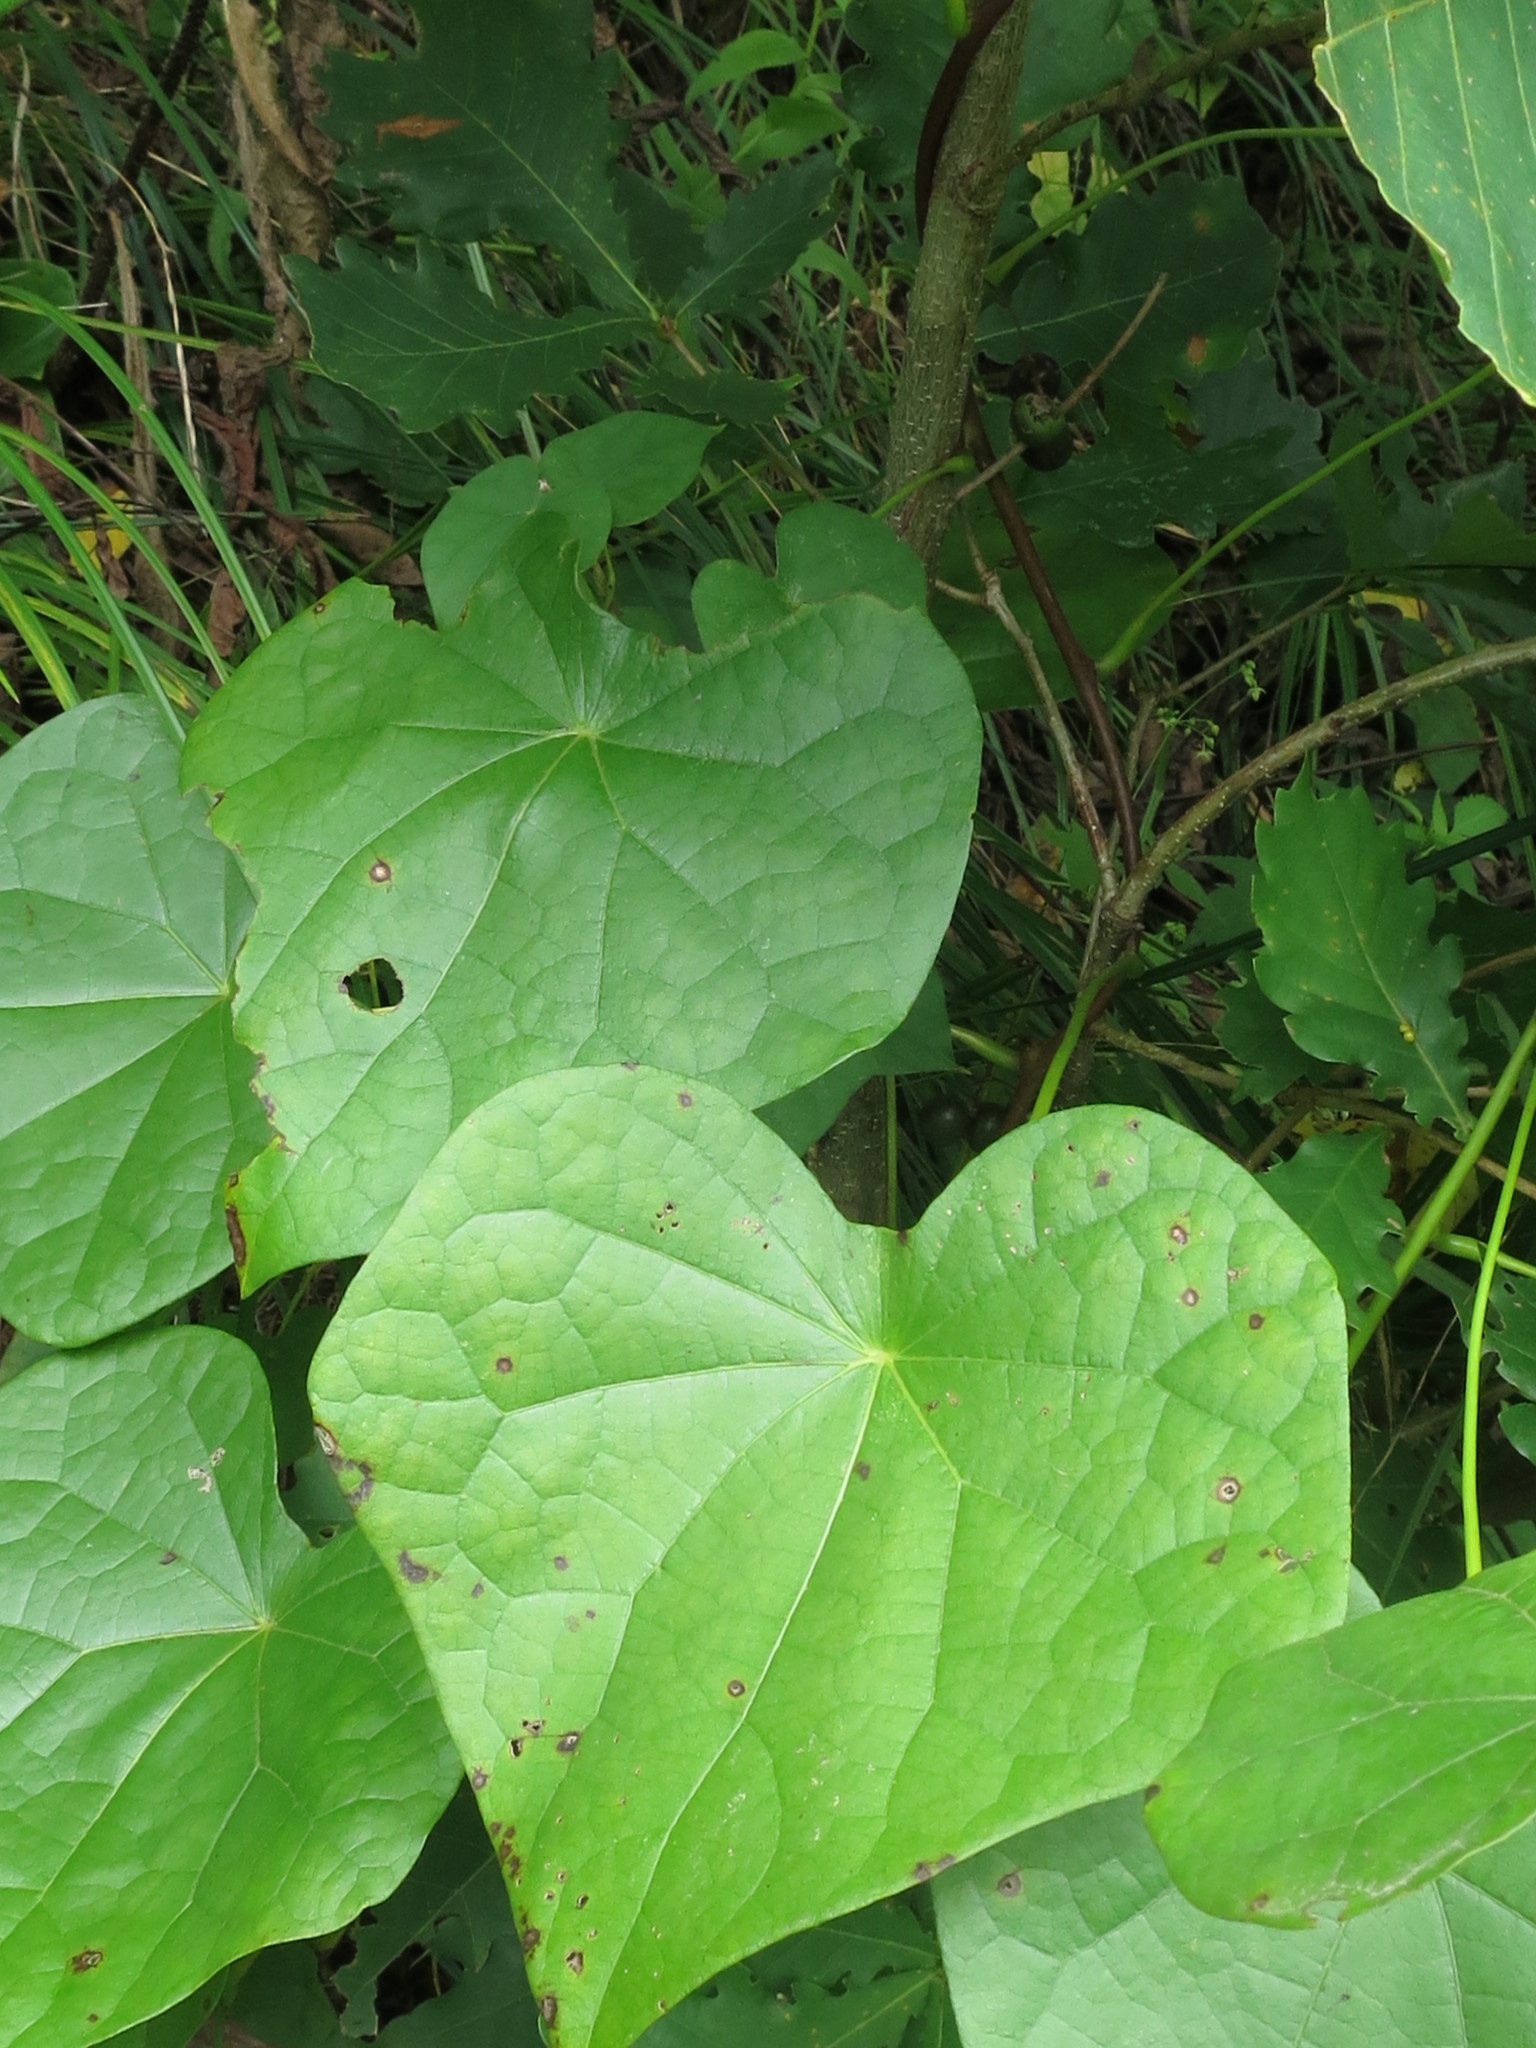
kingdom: Plantae
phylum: Tracheophyta
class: Magnoliopsida
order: Ranunculales
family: Menispermaceae
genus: Menispermum
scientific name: Menispermum dauricum
